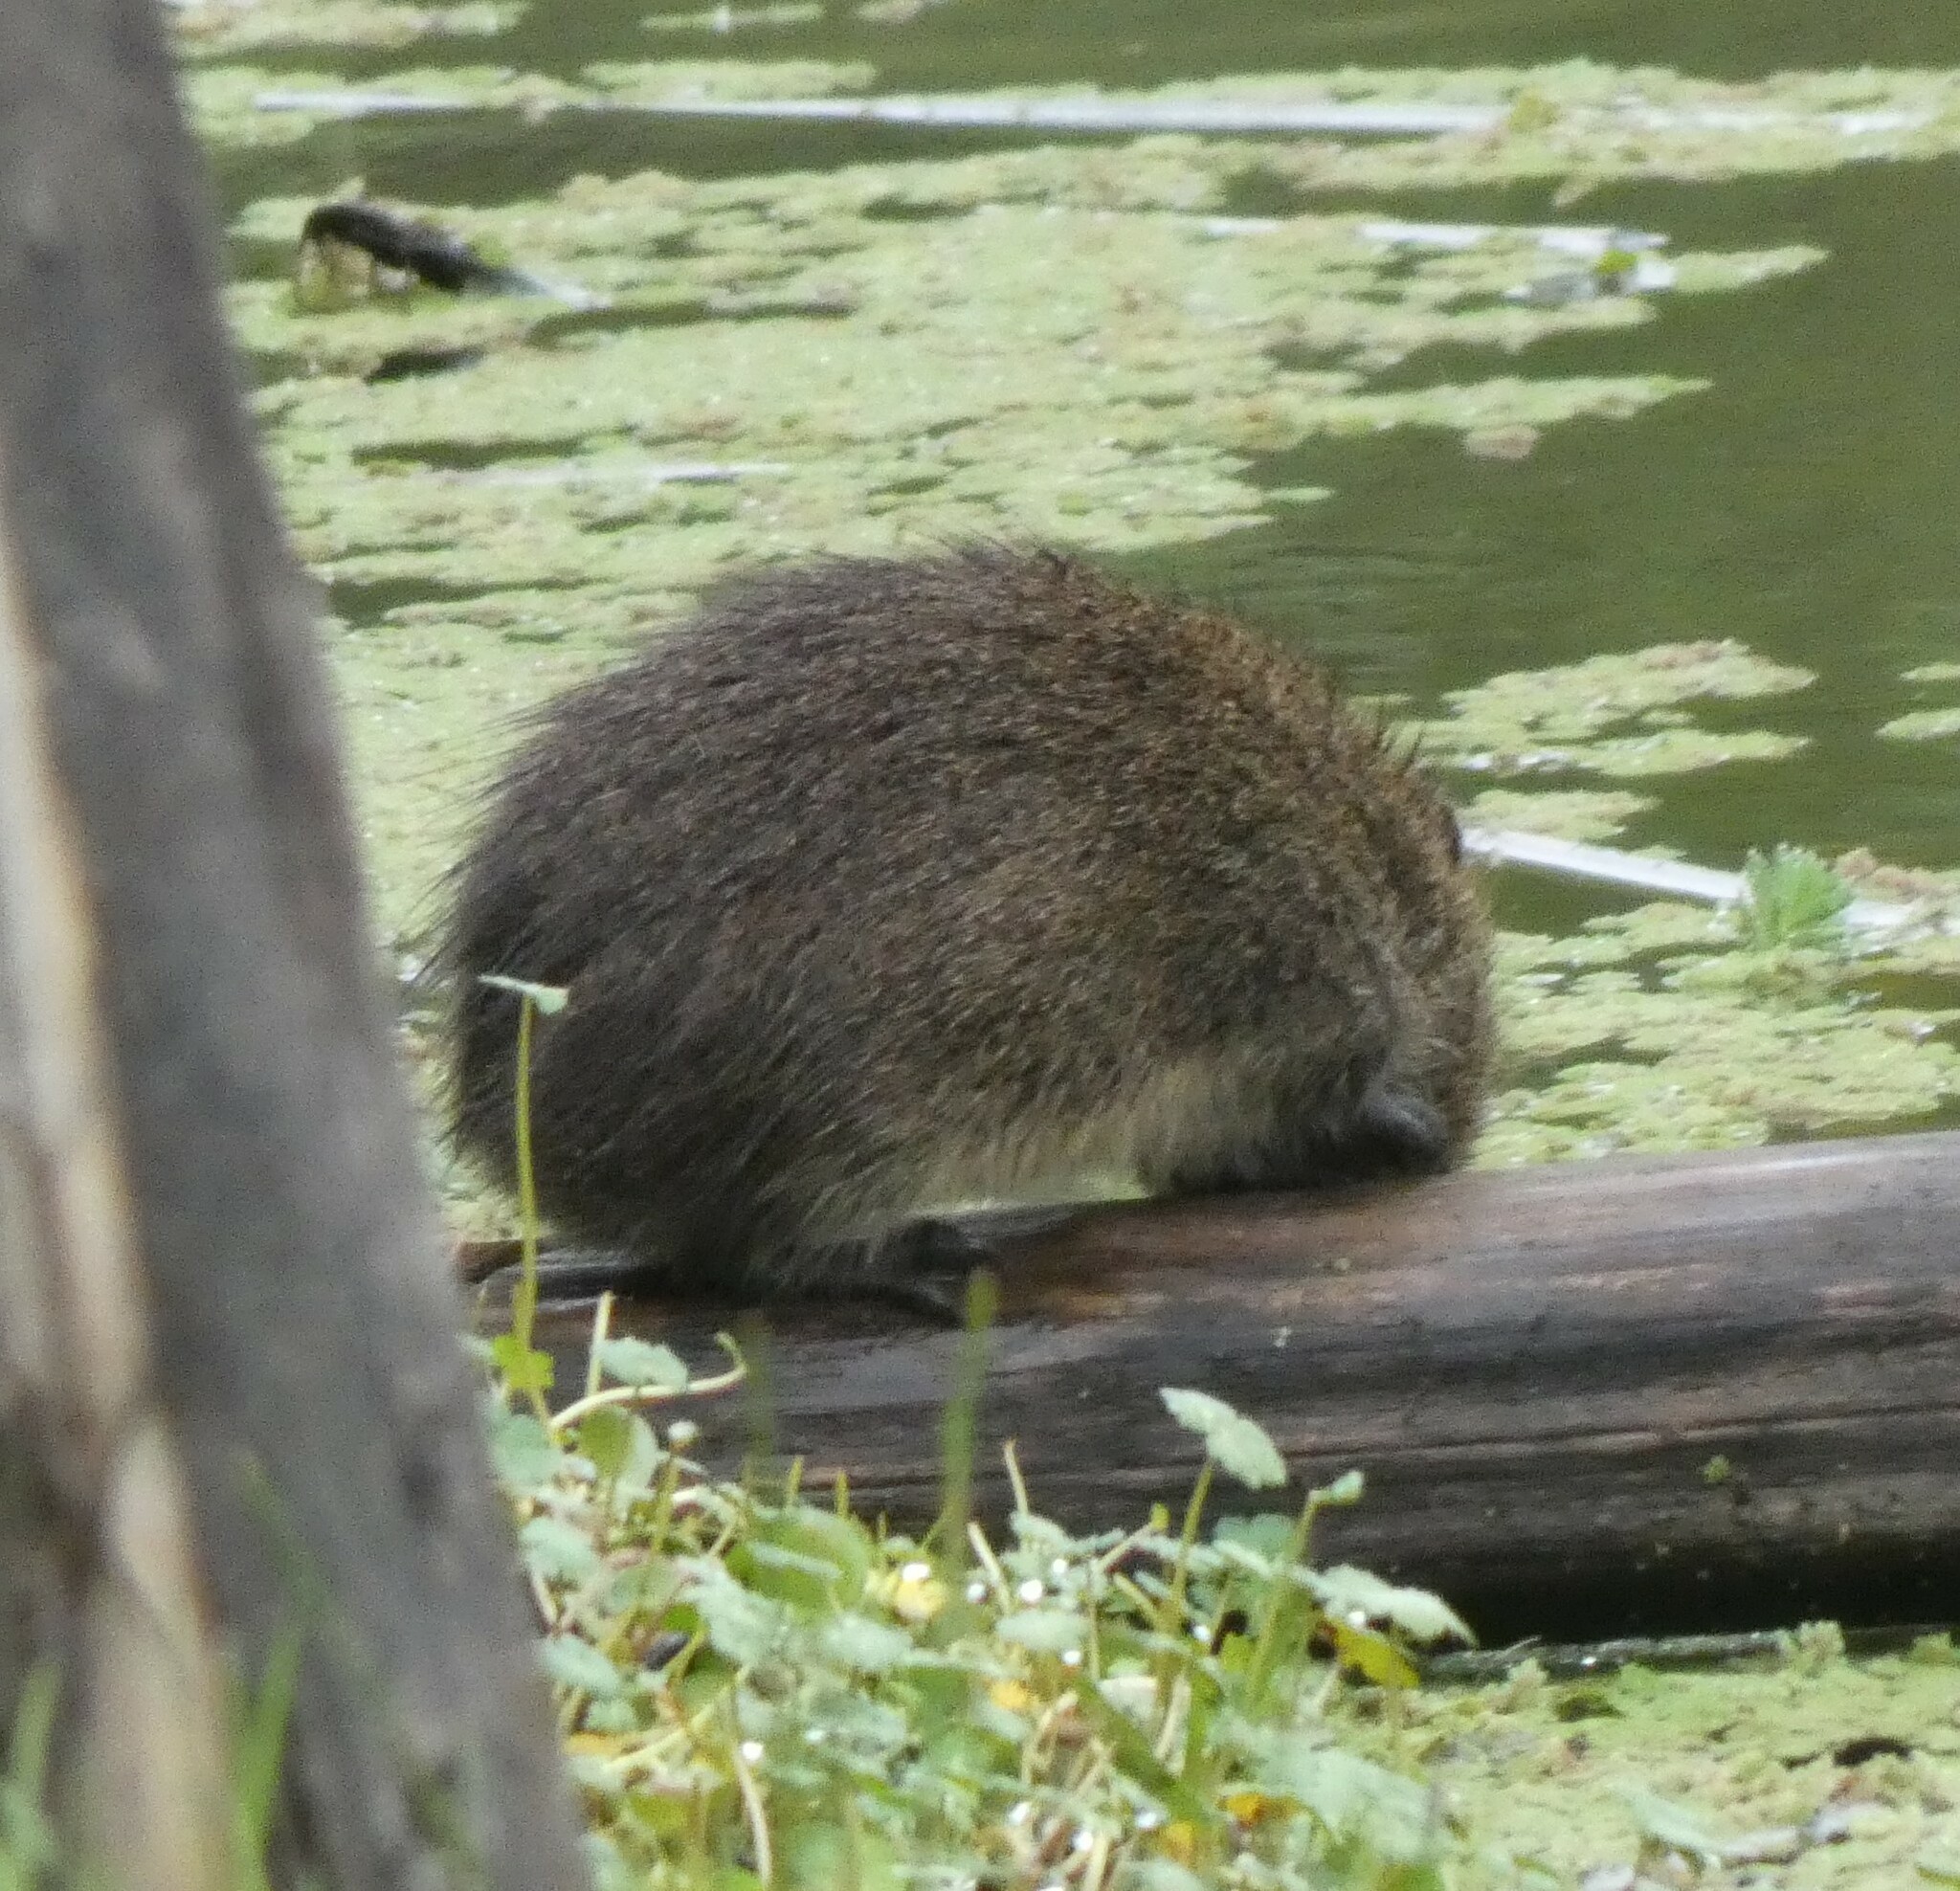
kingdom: Animalia
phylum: Chordata
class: Mammalia
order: Rodentia
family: Caviidae
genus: Cavia
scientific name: Cavia aperea
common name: Brazilian guinea pig
